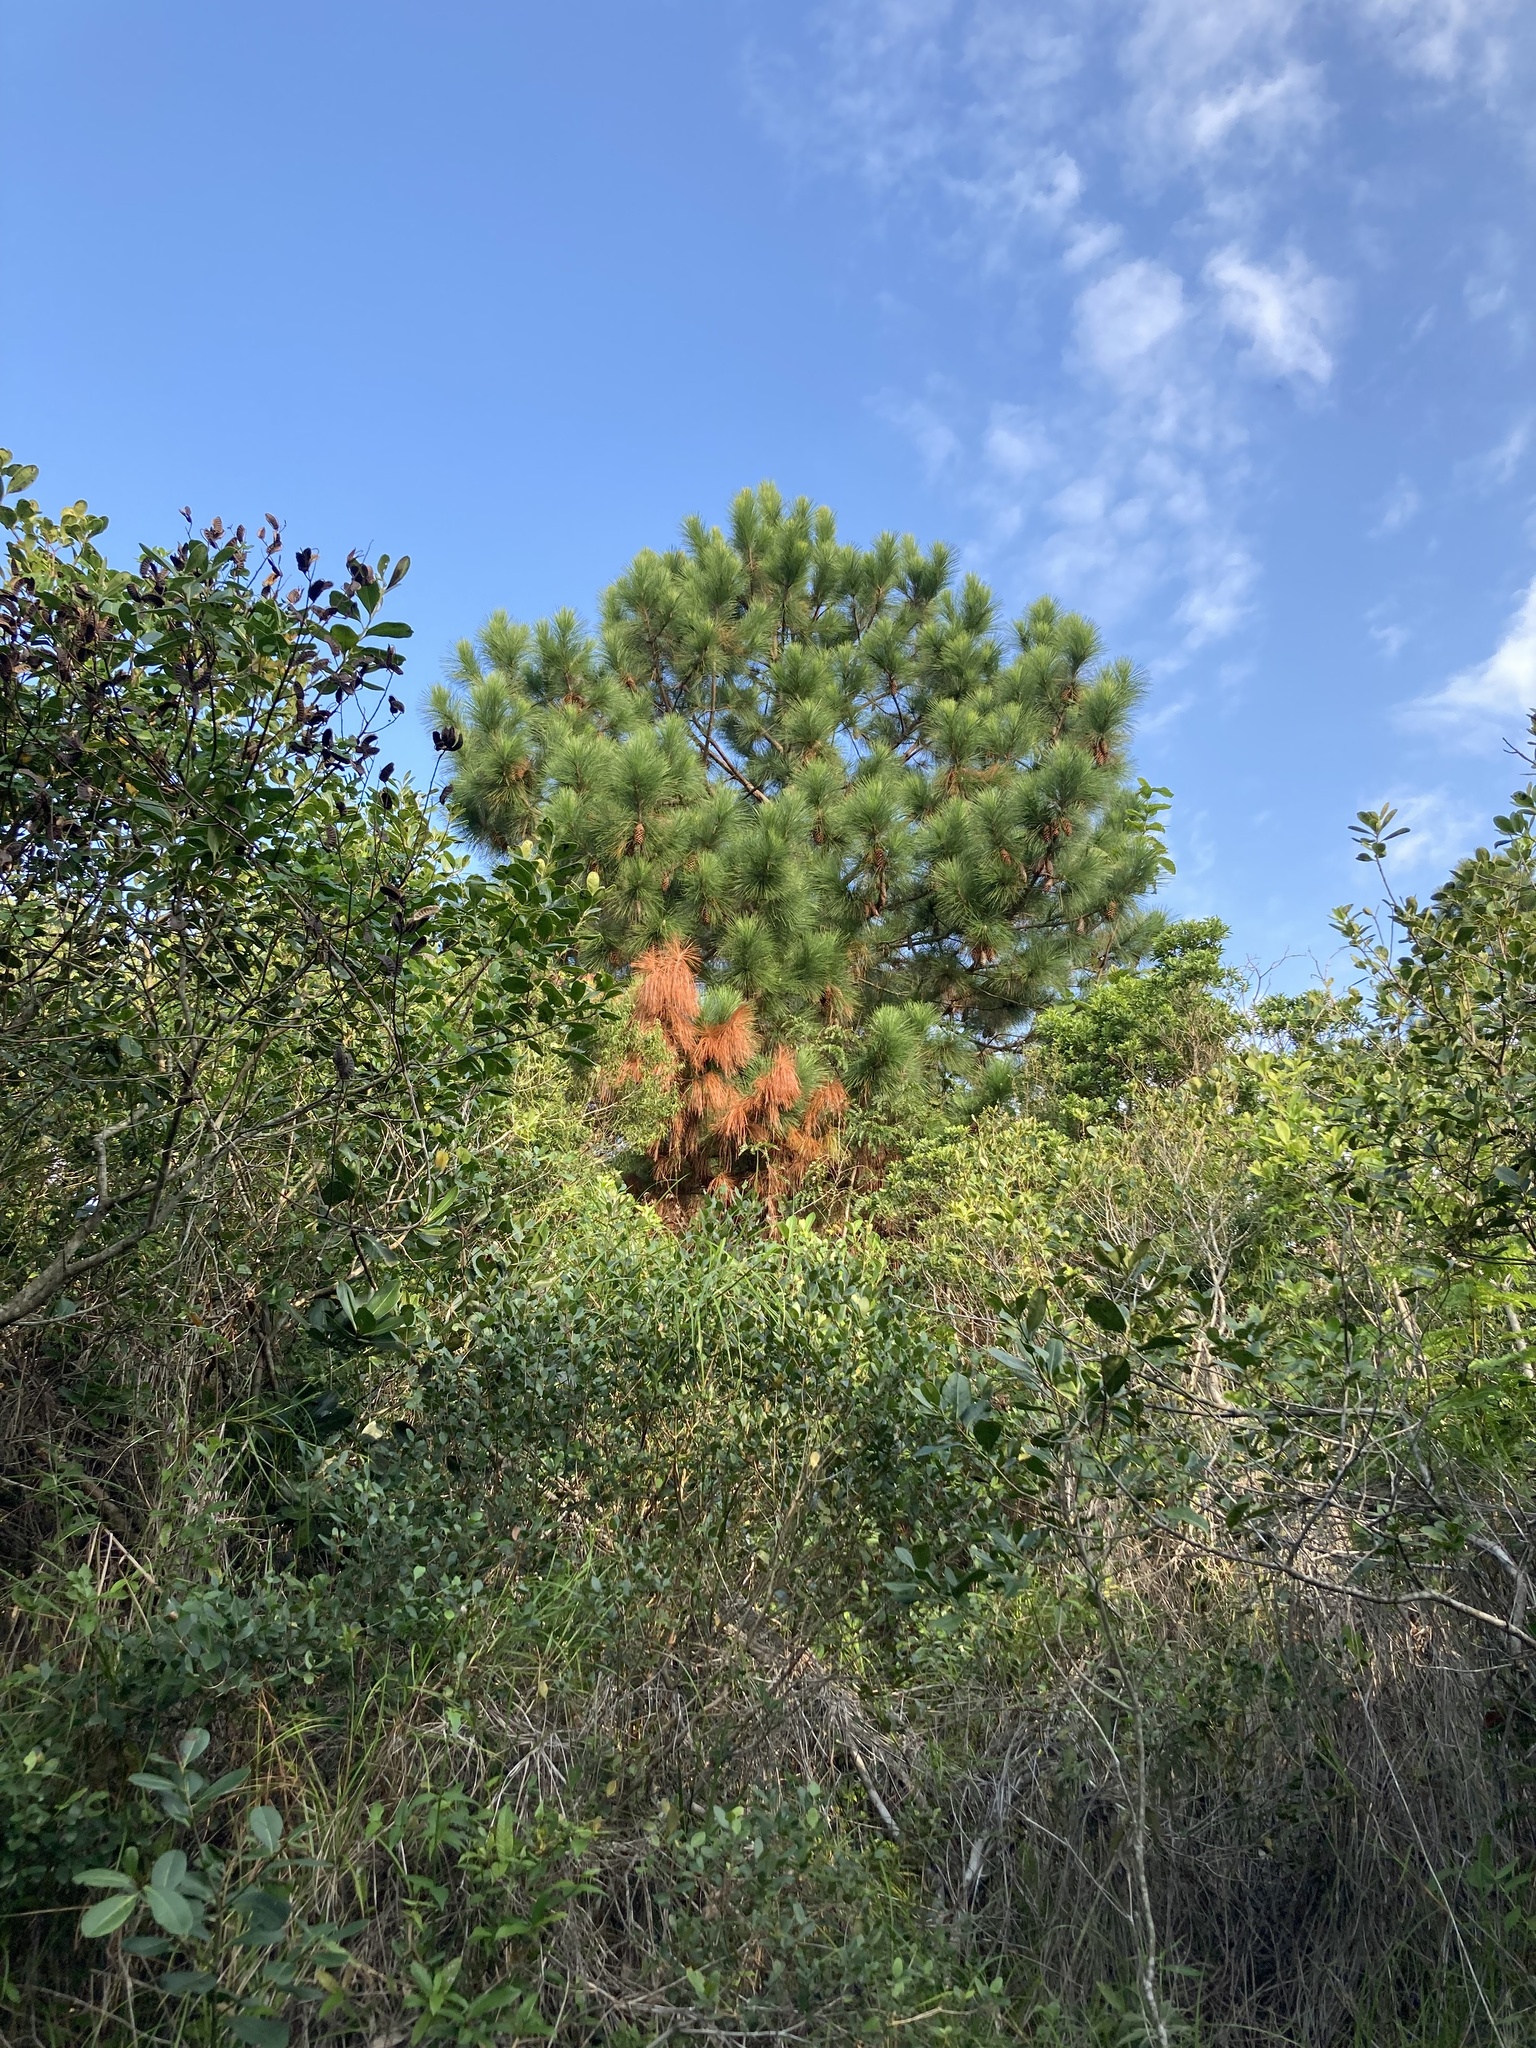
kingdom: Plantae
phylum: Tracheophyta
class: Pinopsida
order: Pinales
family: Pinaceae
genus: Pinus
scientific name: Pinus elliottii
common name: Slash pine
